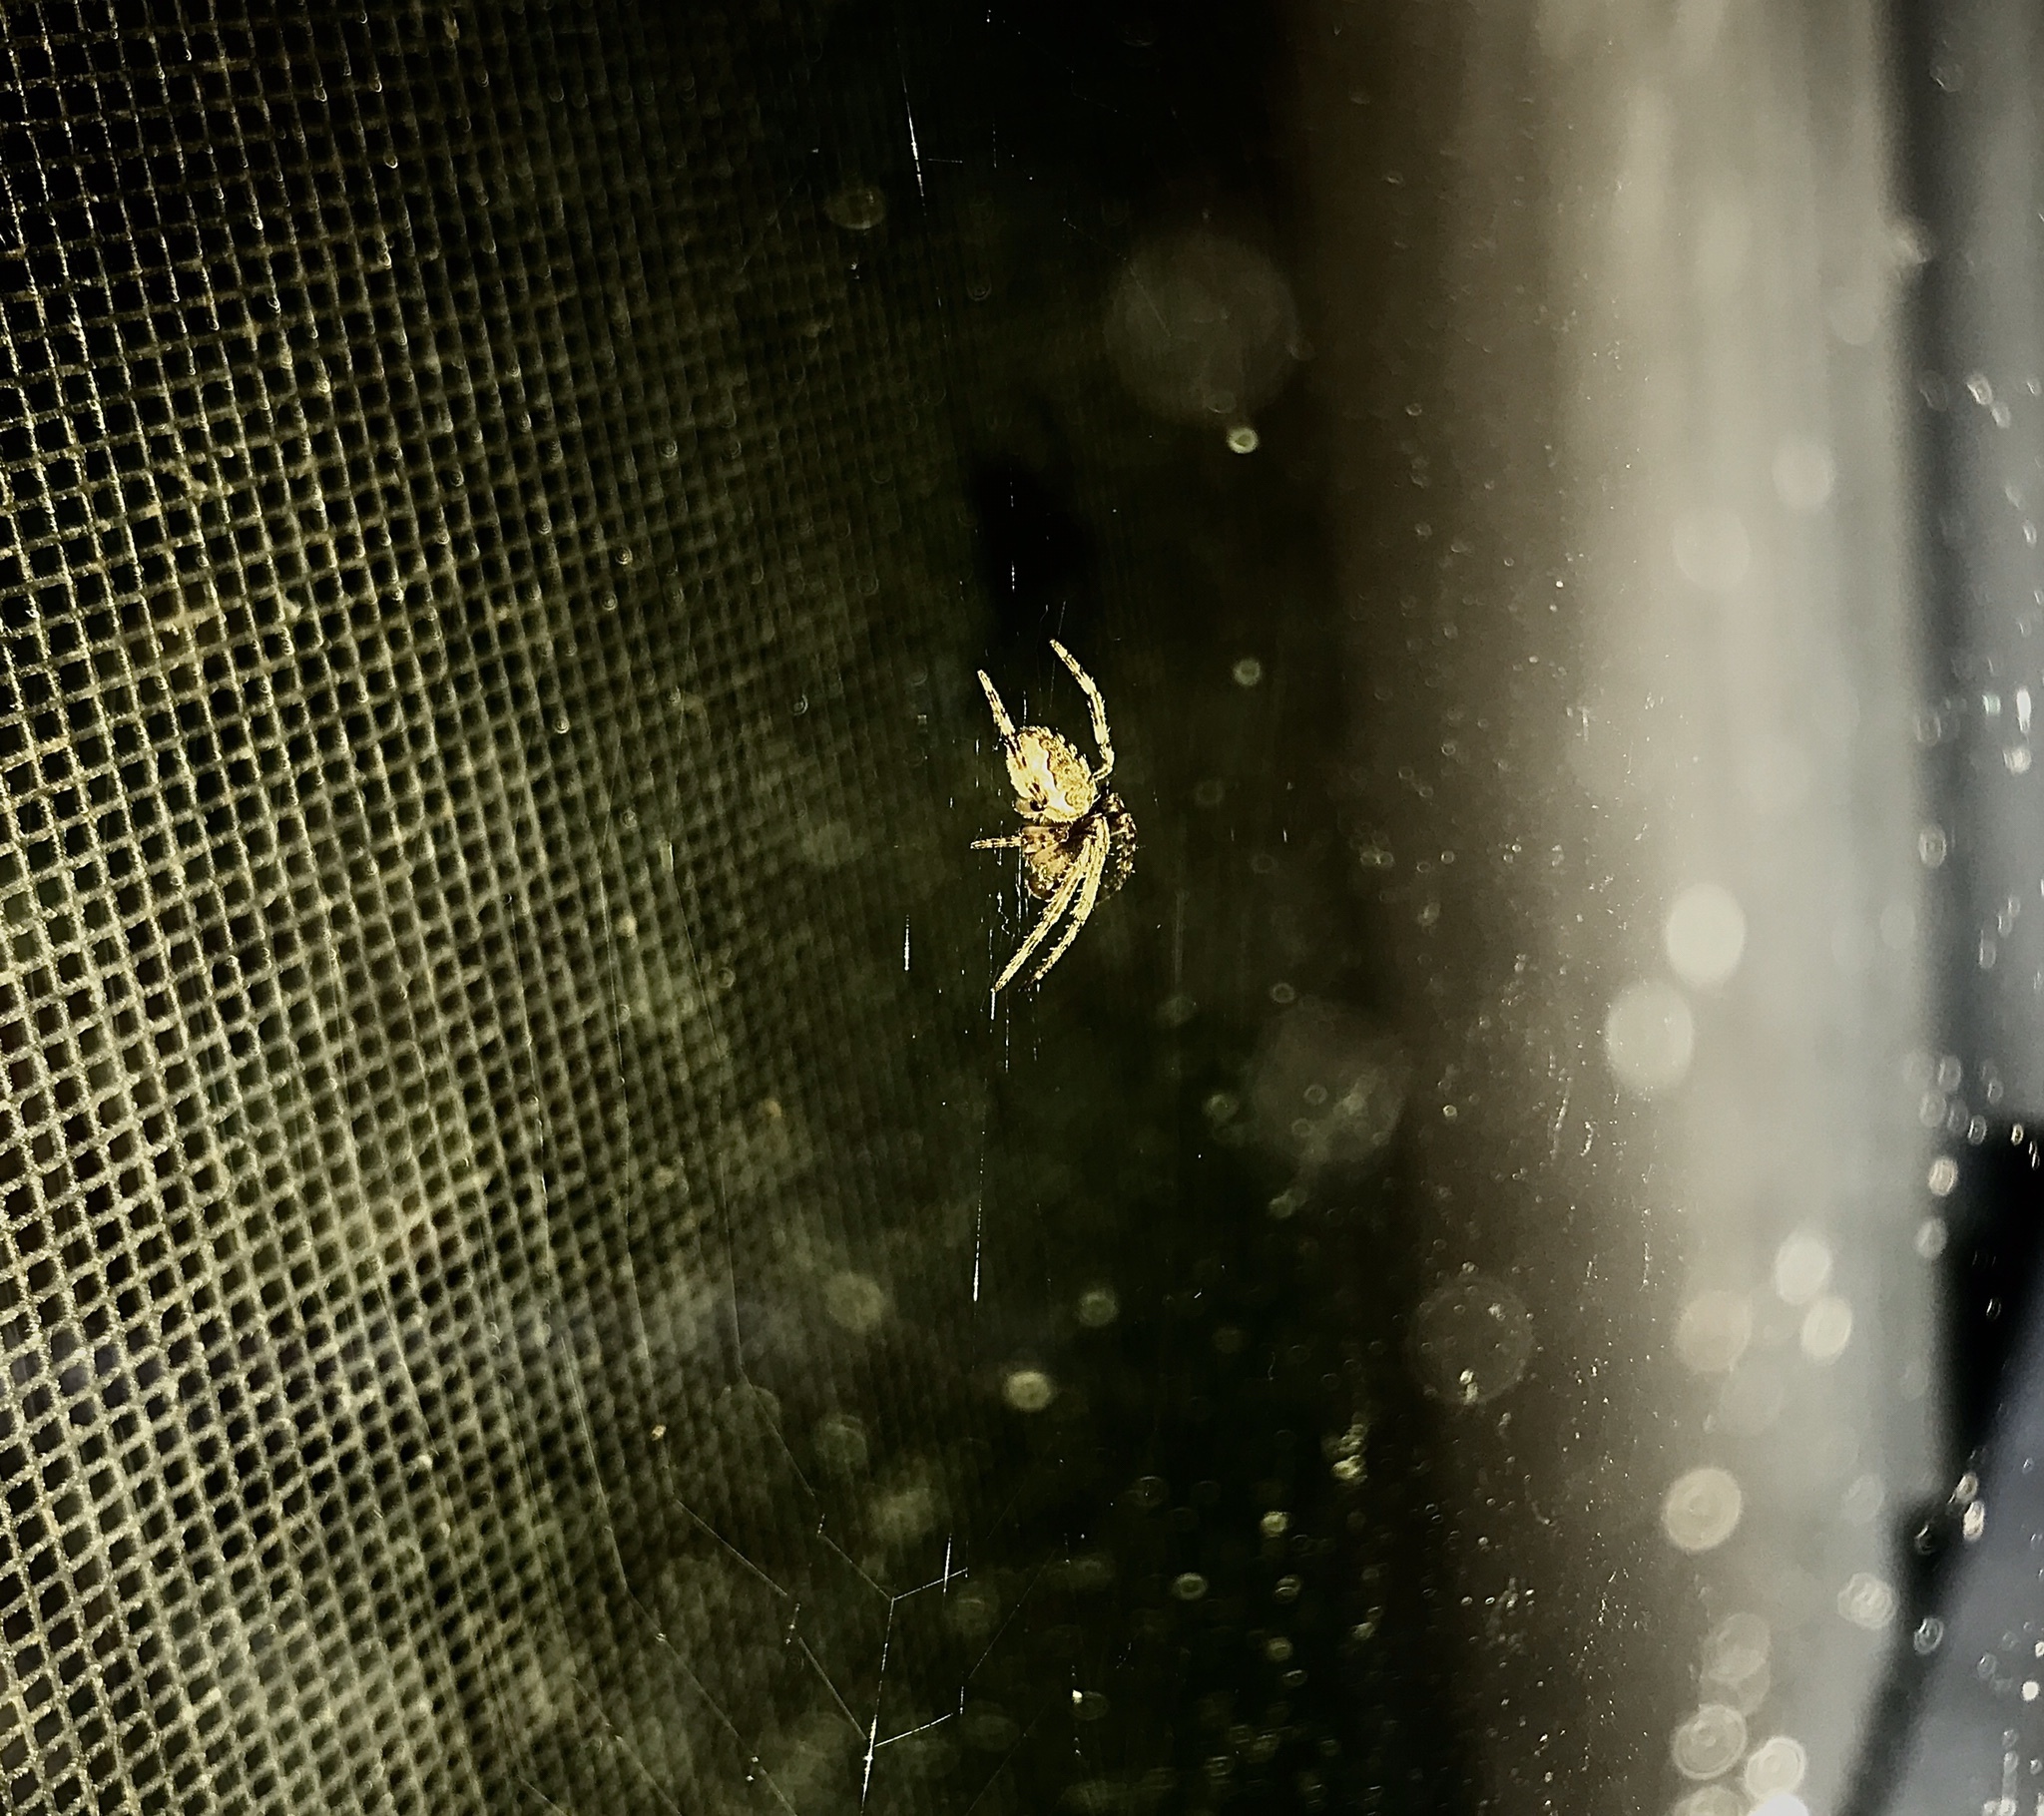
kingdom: Animalia
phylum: Arthropoda
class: Arachnida
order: Araneae
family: Araneidae
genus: Larinioides
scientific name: Larinioides sclopetarius
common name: Bridge orbweaver
